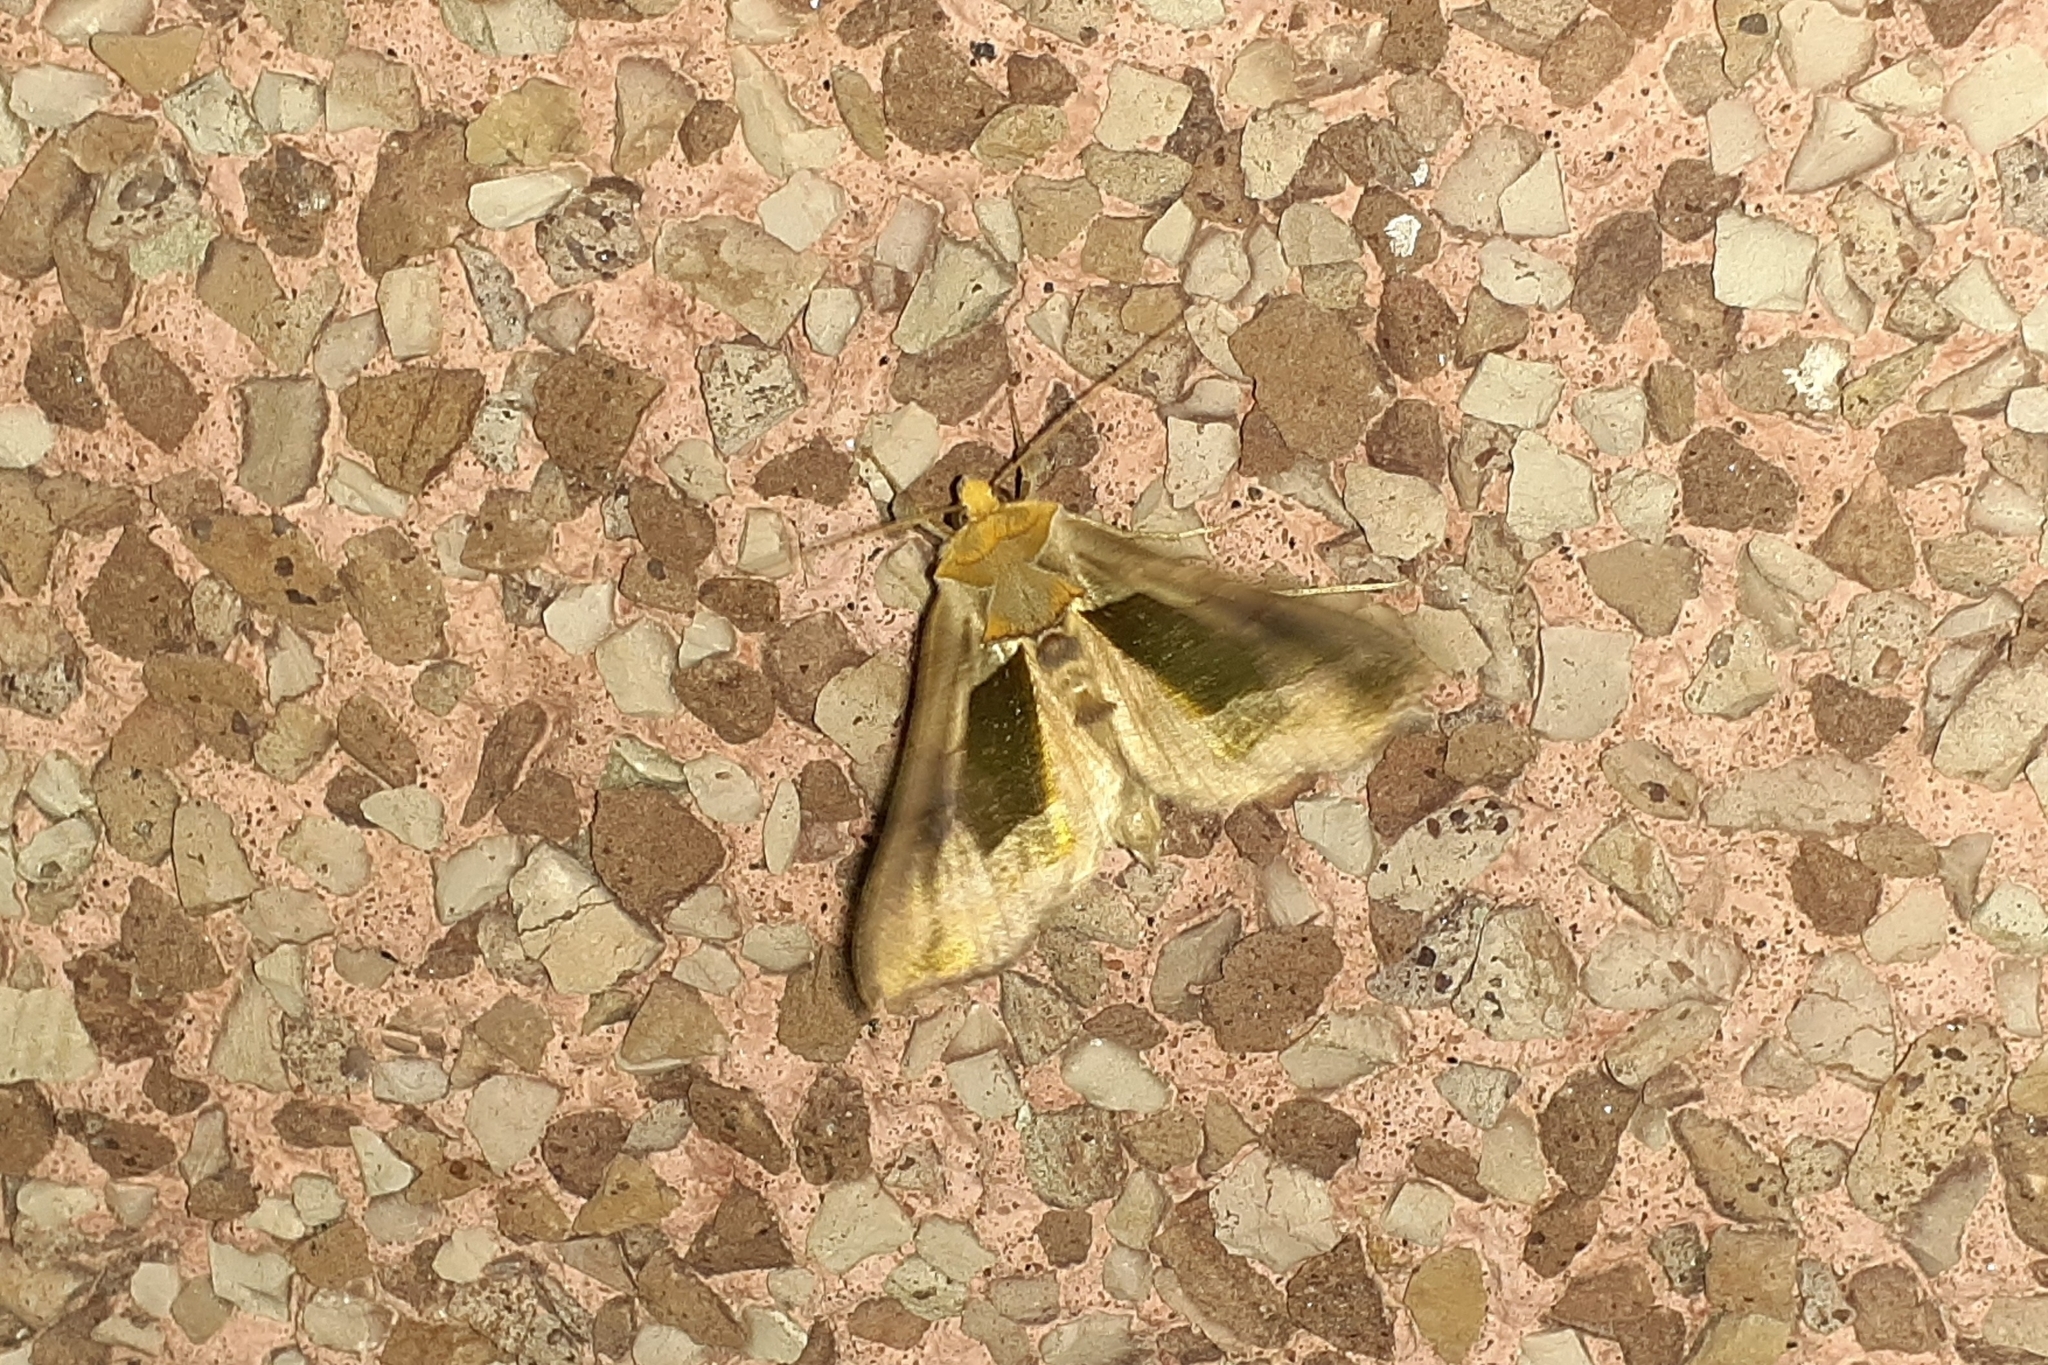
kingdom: Animalia
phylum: Arthropoda
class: Insecta
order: Lepidoptera
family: Noctuidae
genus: Diachrysia
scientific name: Diachrysia balluca
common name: Green-patched looper moth
